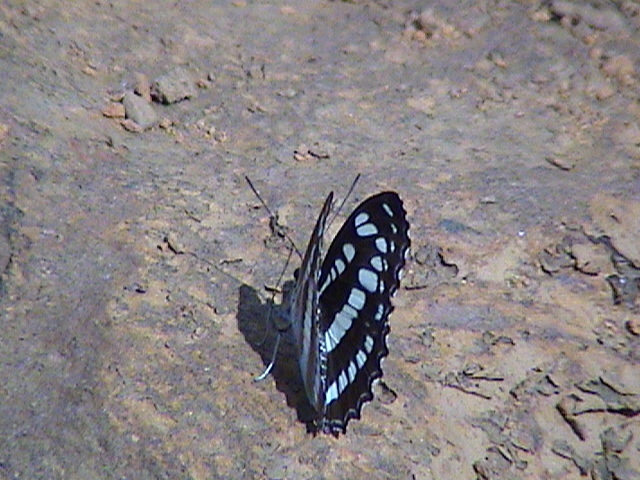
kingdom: Animalia
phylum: Arthropoda
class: Insecta
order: Lepidoptera
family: Nymphalidae
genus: Parathyma
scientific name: Parathyma perius
